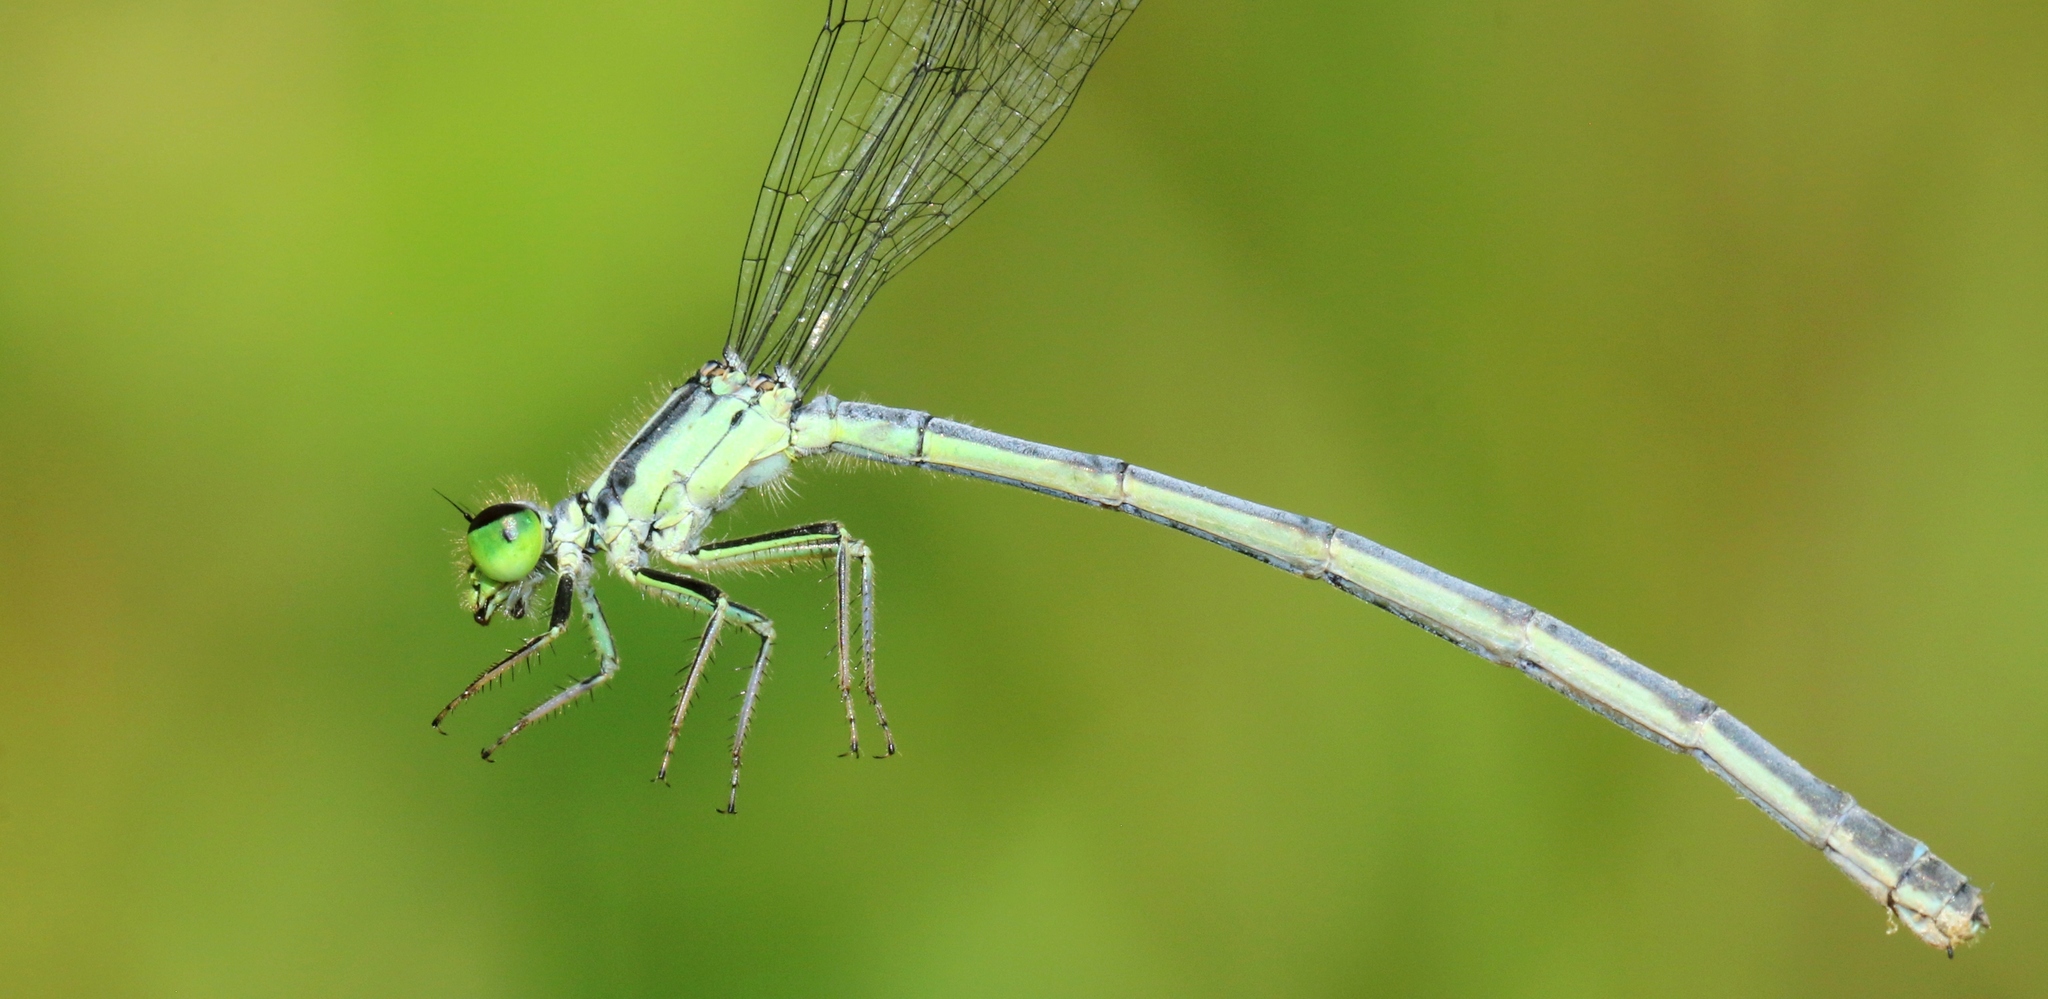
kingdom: Animalia
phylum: Arthropoda
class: Insecta
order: Odonata
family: Coenagrionidae
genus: Ischnura
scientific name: Ischnura verticalis
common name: Eastern forktail
